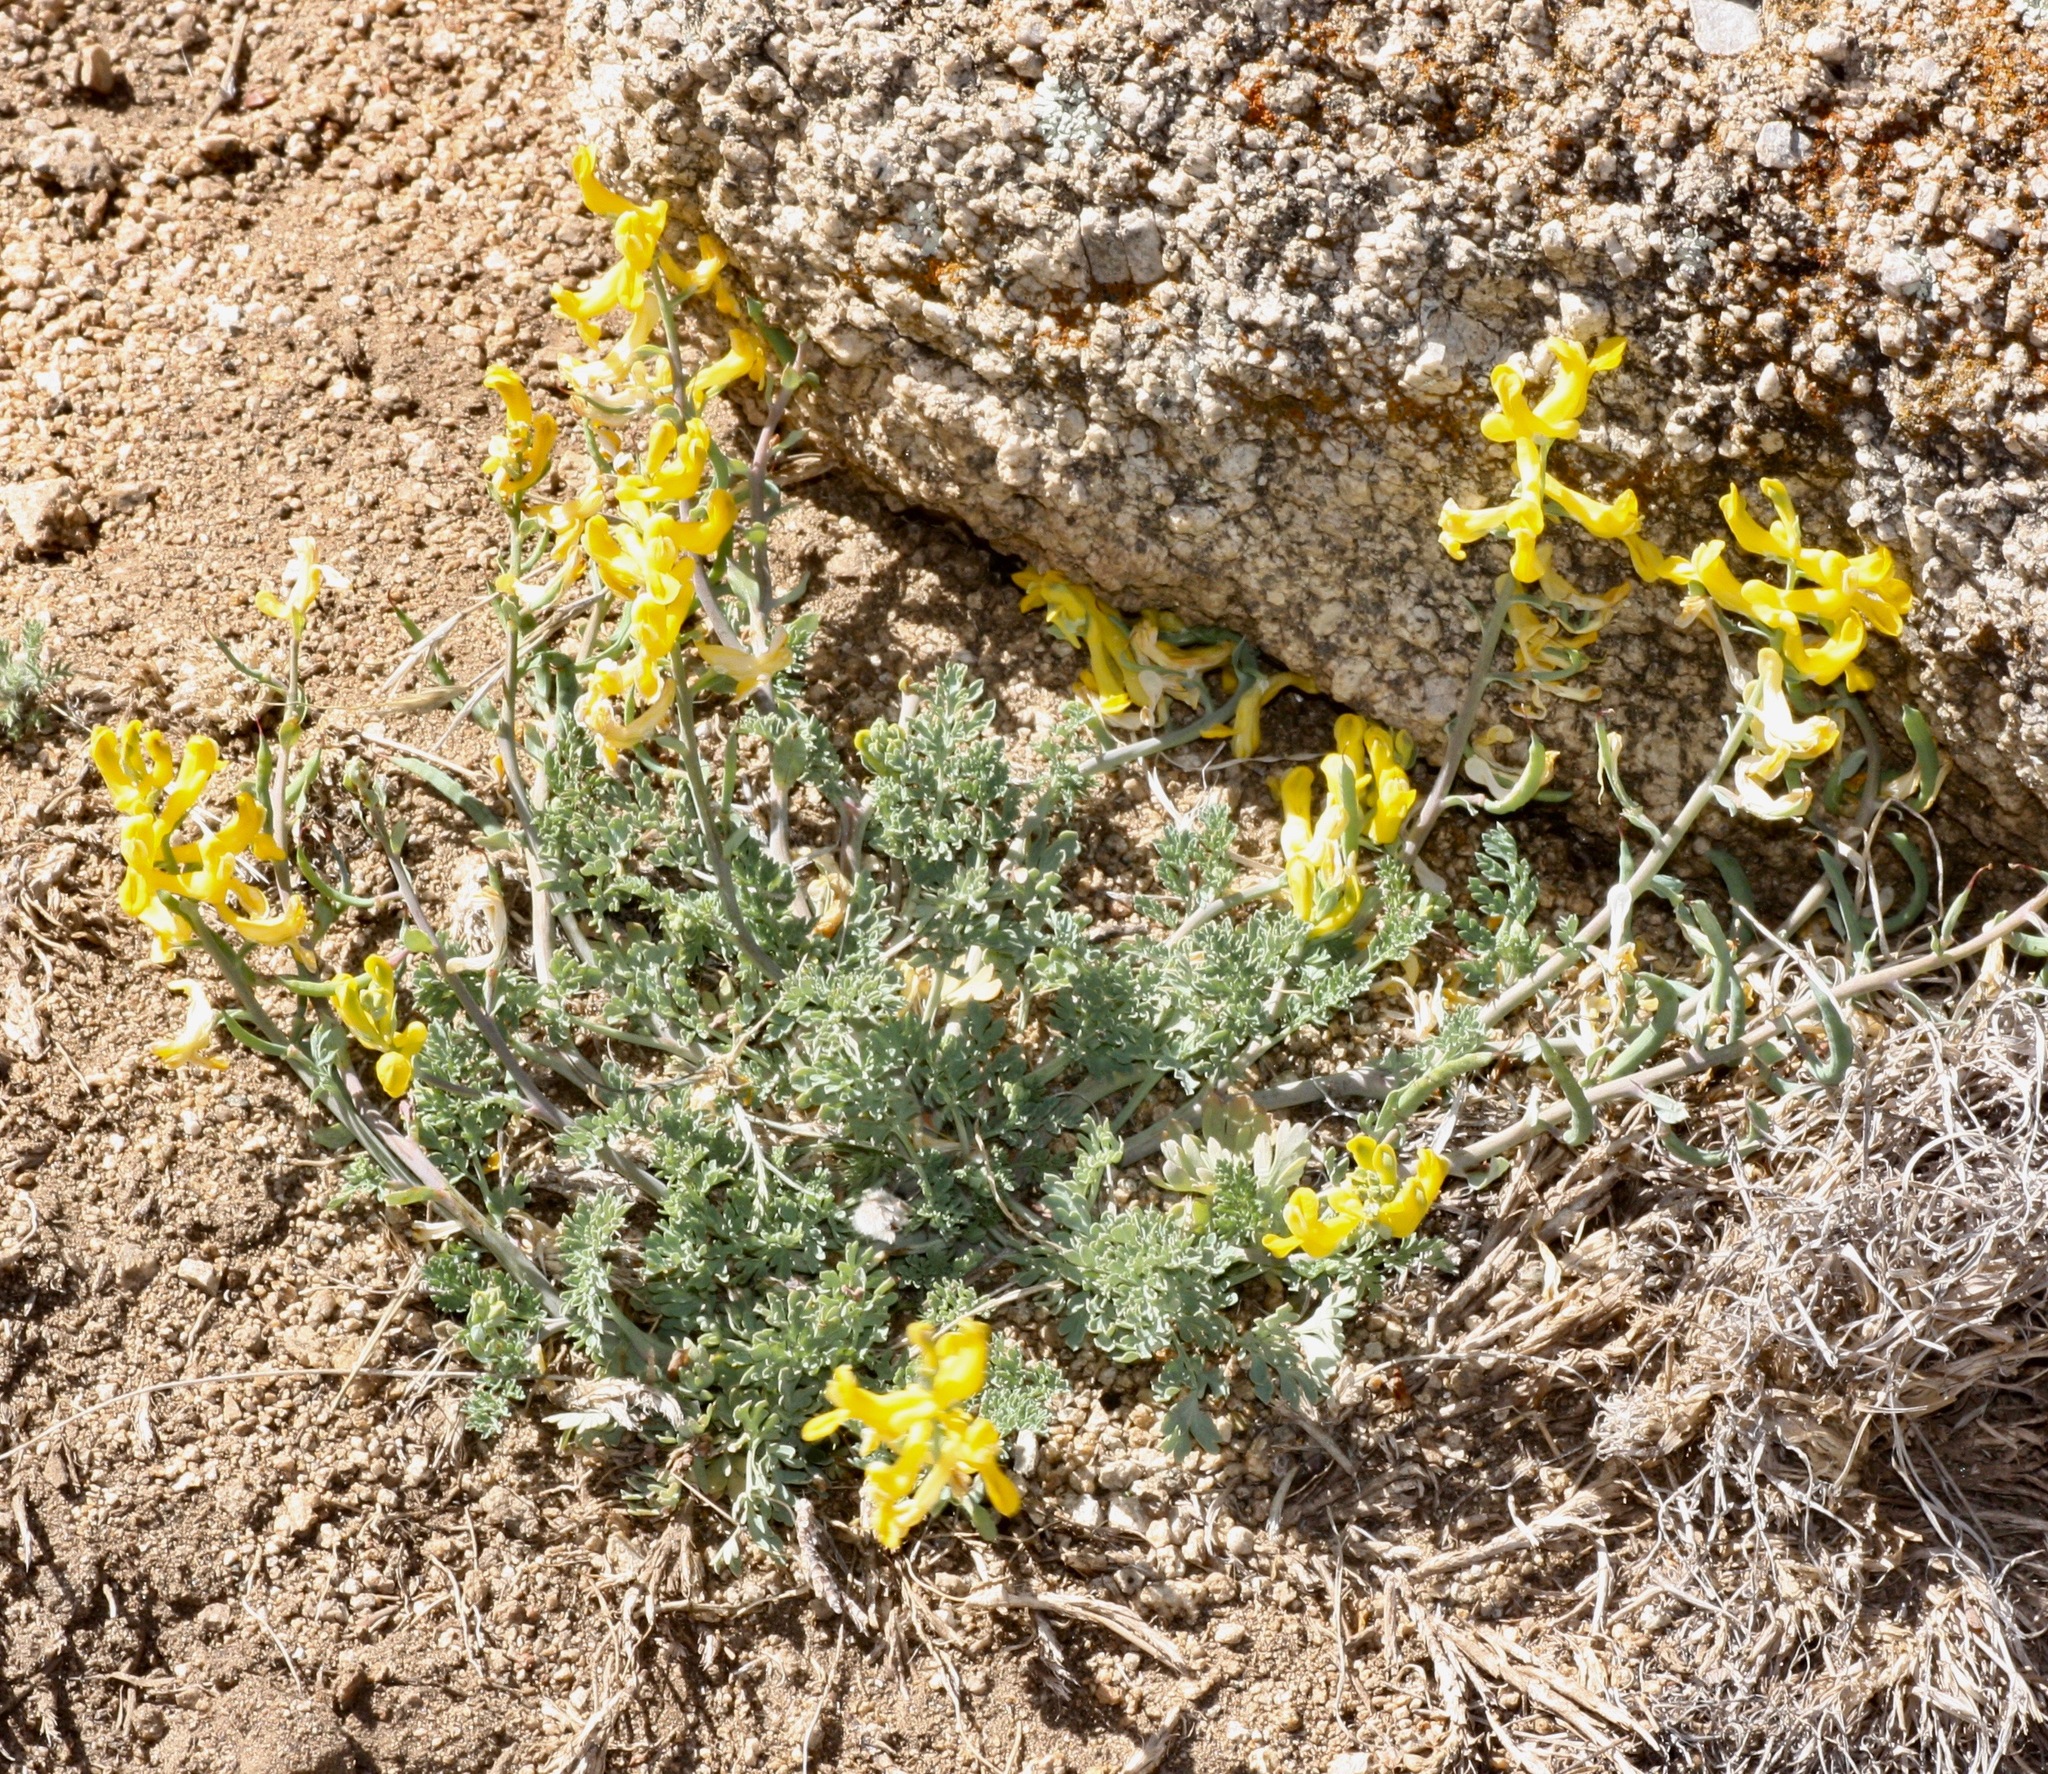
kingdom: Plantae
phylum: Tracheophyta
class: Magnoliopsida
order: Ranunculales
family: Papaveraceae
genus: Corydalis
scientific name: Corydalis aurea
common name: Golden corydalis
